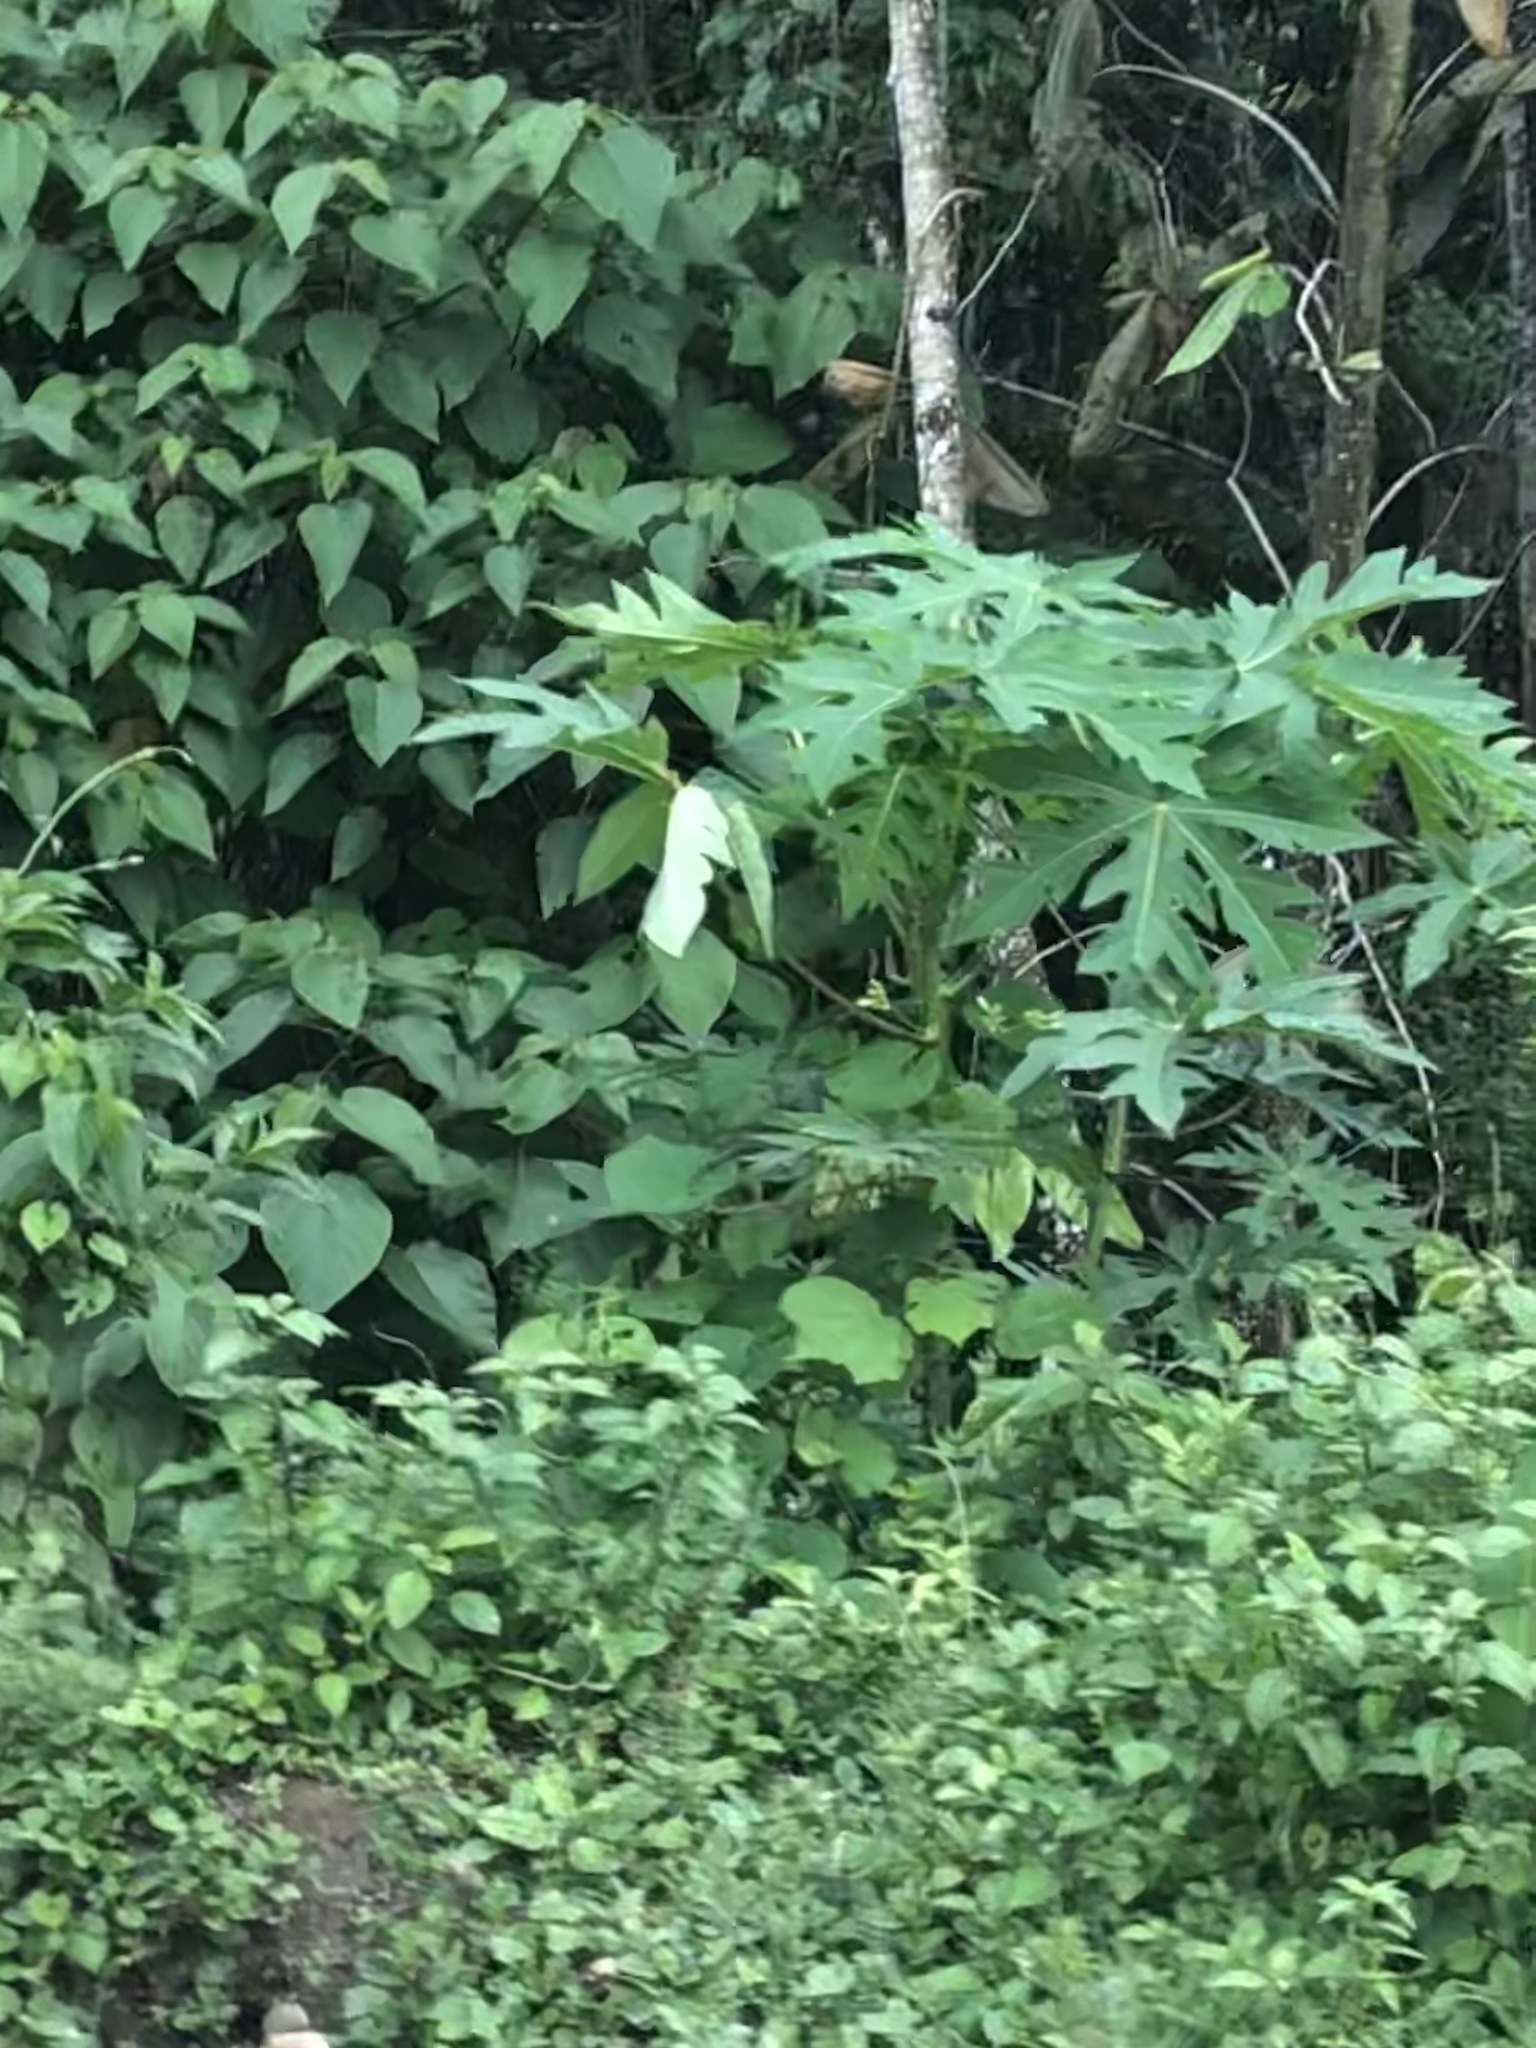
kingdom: Plantae
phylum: Tracheophyta
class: Magnoliopsida
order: Brassicales
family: Caricaceae
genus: Carica
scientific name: Carica papaya
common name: Papaya
